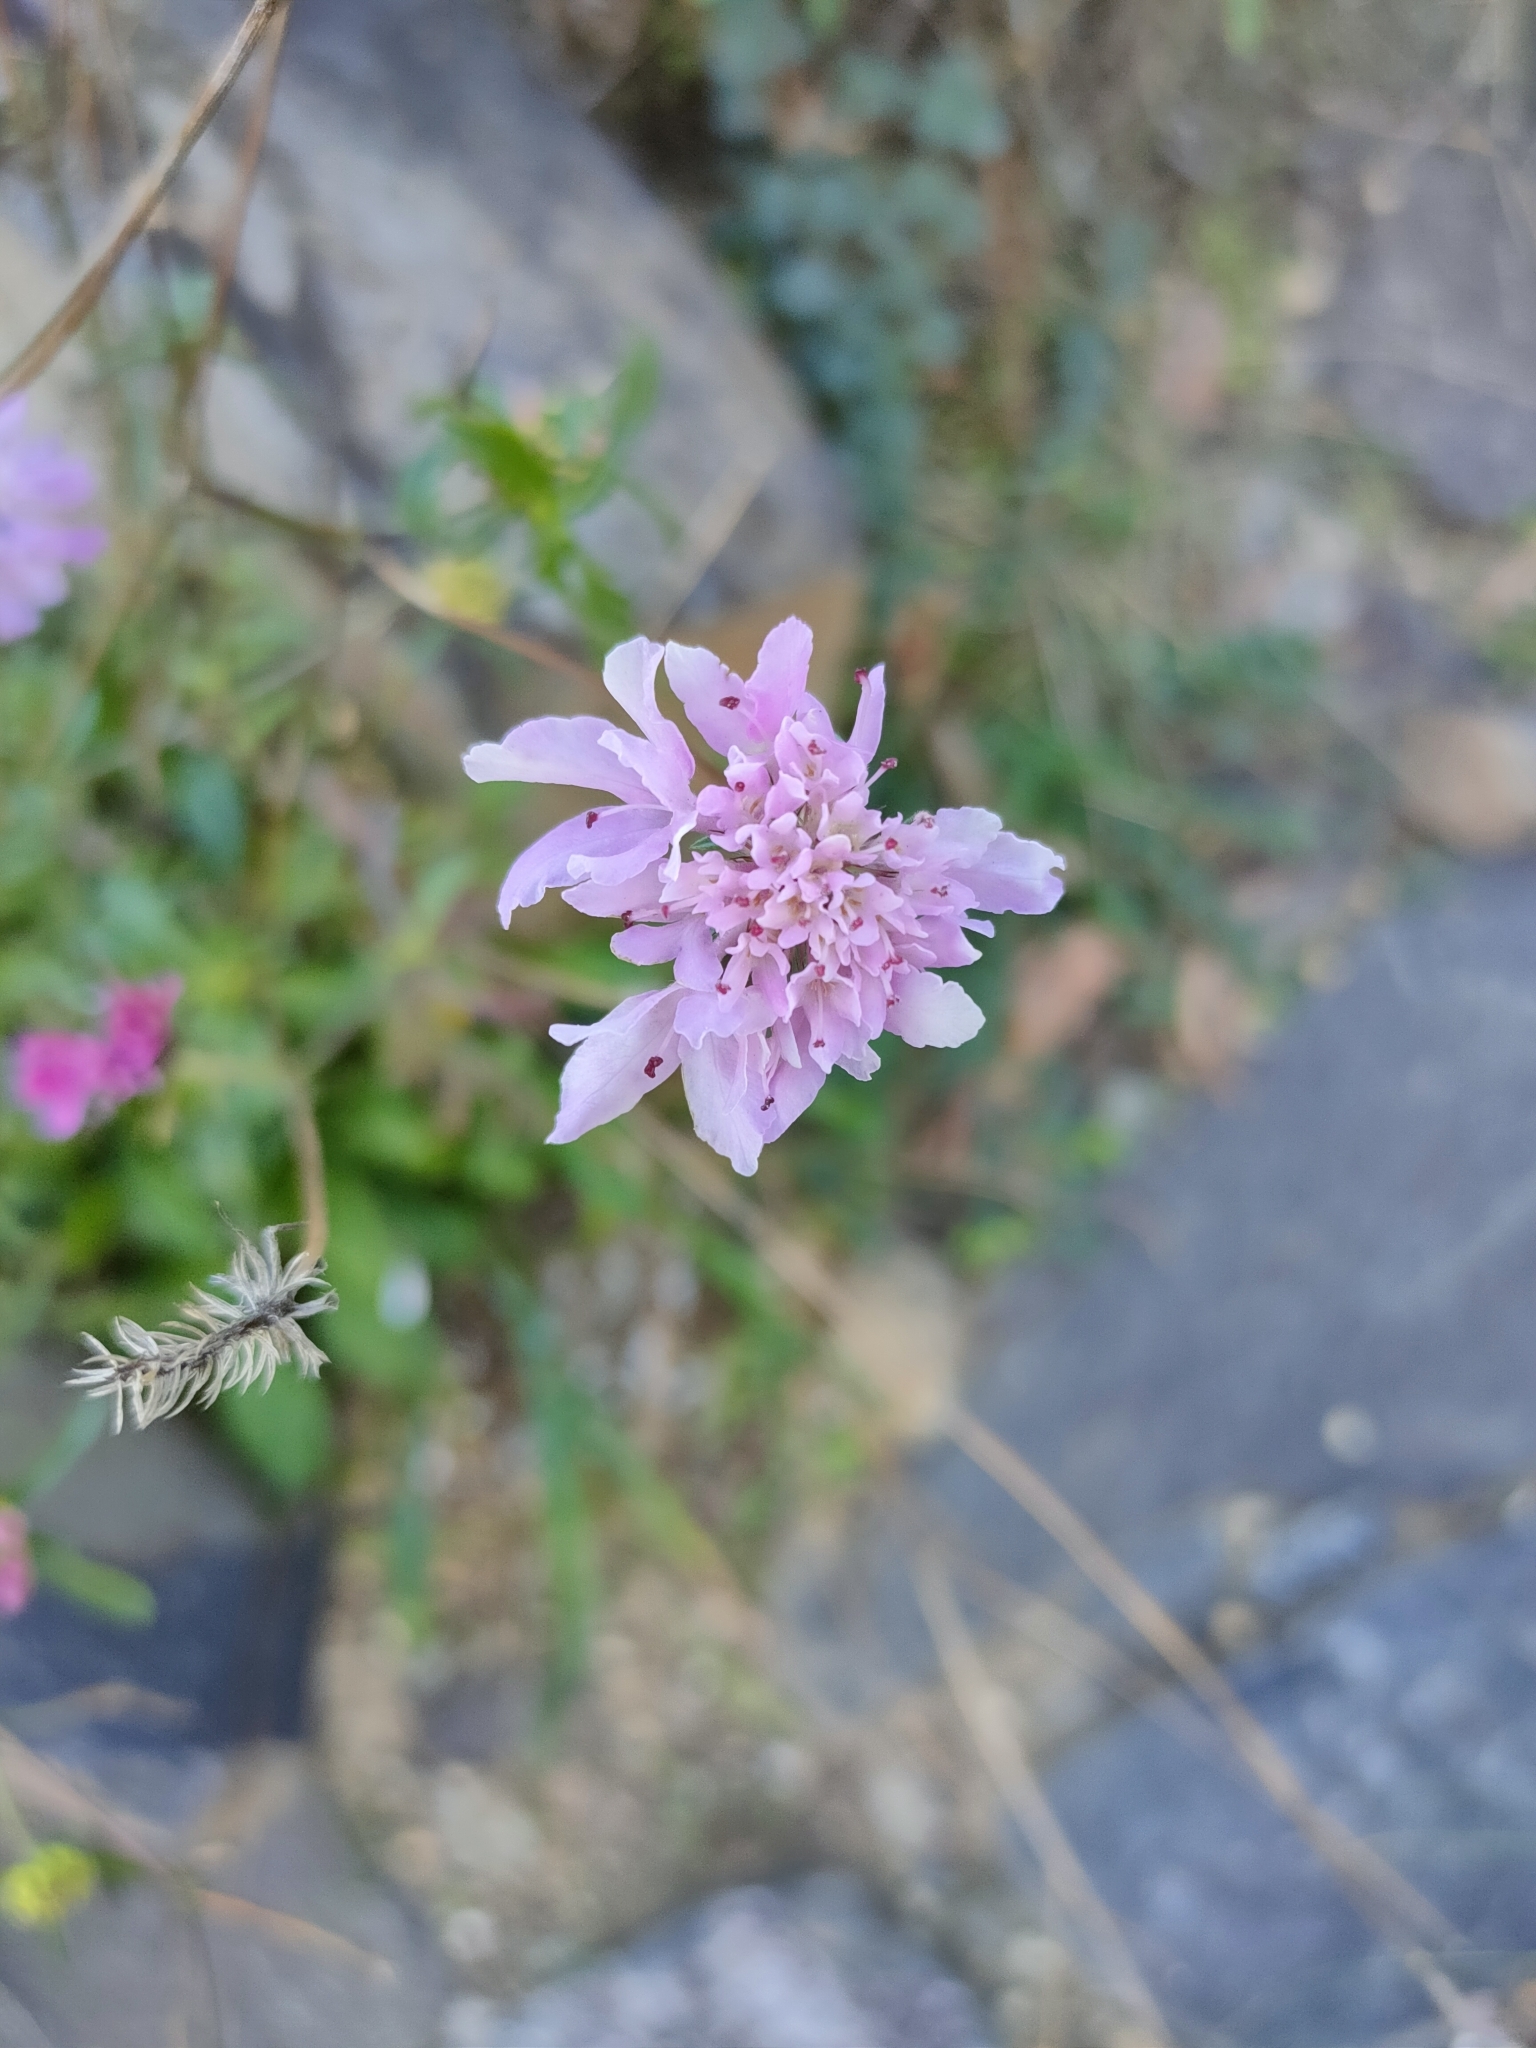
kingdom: Plantae
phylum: Tracheophyta
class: Magnoliopsida
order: Dipsacales
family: Caprifoliaceae
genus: Sixalix
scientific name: Sixalix atropurpurea
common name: Sweet scabious
